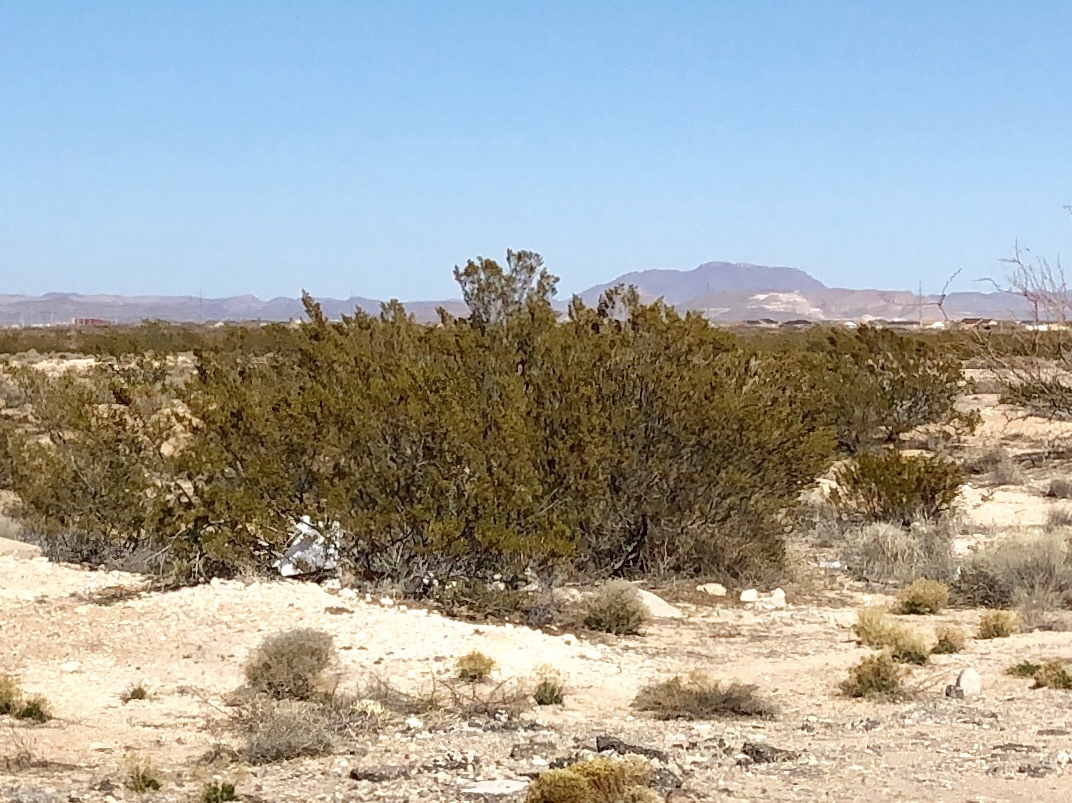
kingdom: Plantae
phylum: Tracheophyta
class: Magnoliopsida
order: Zygophyllales
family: Zygophyllaceae
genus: Larrea
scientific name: Larrea tridentata
